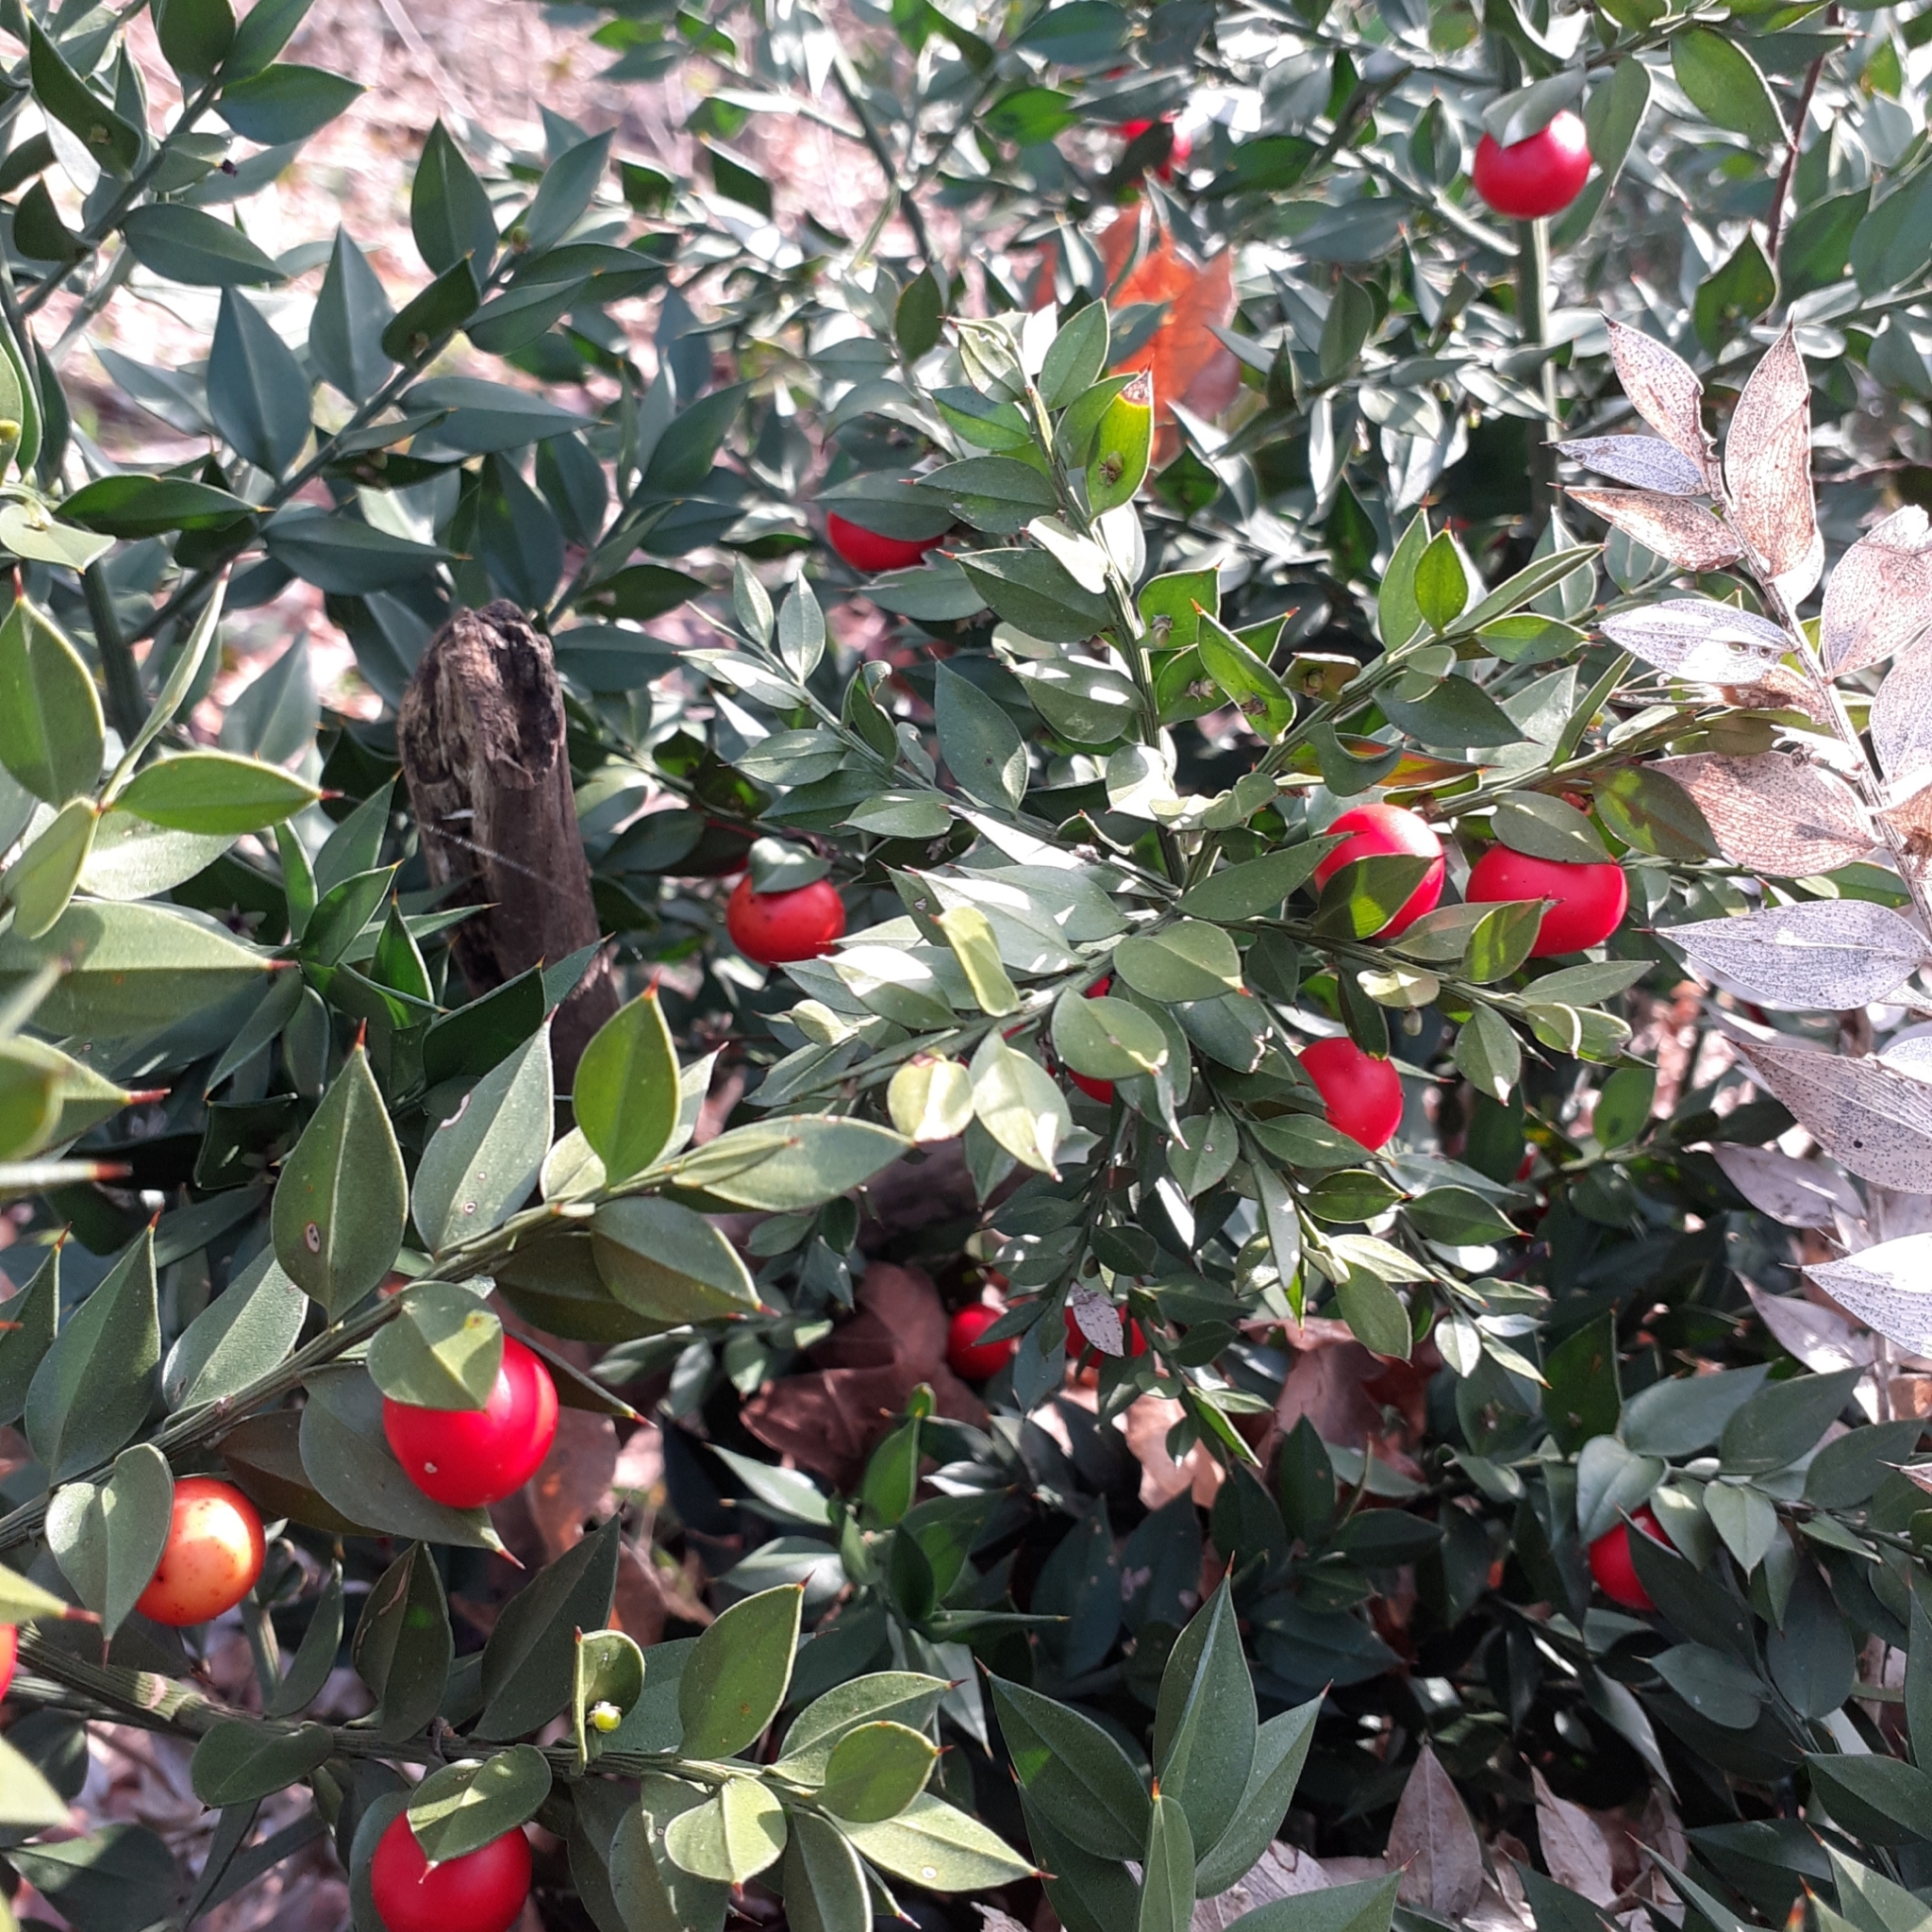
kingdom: Plantae
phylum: Tracheophyta
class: Liliopsida
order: Asparagales
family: Asparagaceae
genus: Ruscus
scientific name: Ruscus aculeatus
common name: Butcher's-broom
